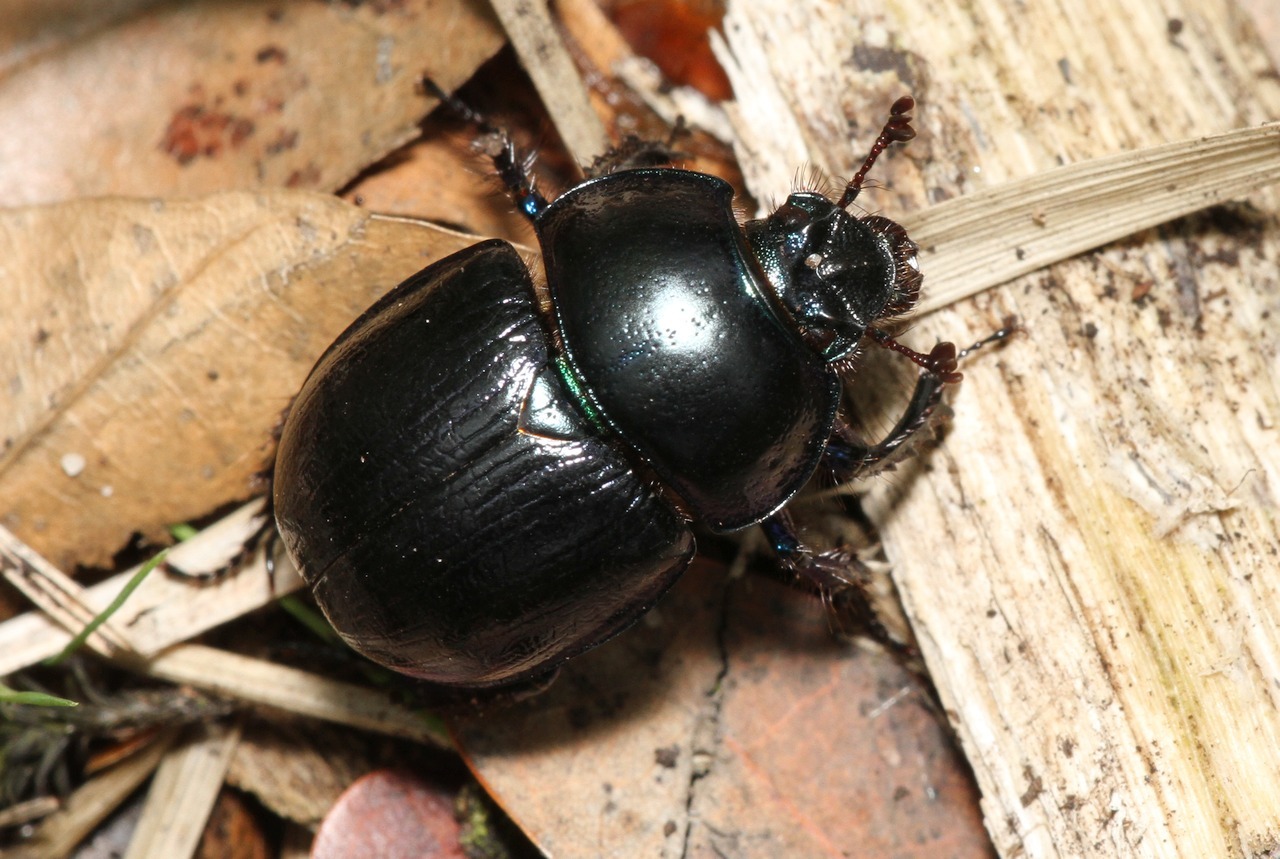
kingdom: Animalia
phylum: Arthropoda
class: Insecta
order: Coleoptera
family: Geotrupidae
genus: Anoplotrupes
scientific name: Anoplotrupes stercorosus
